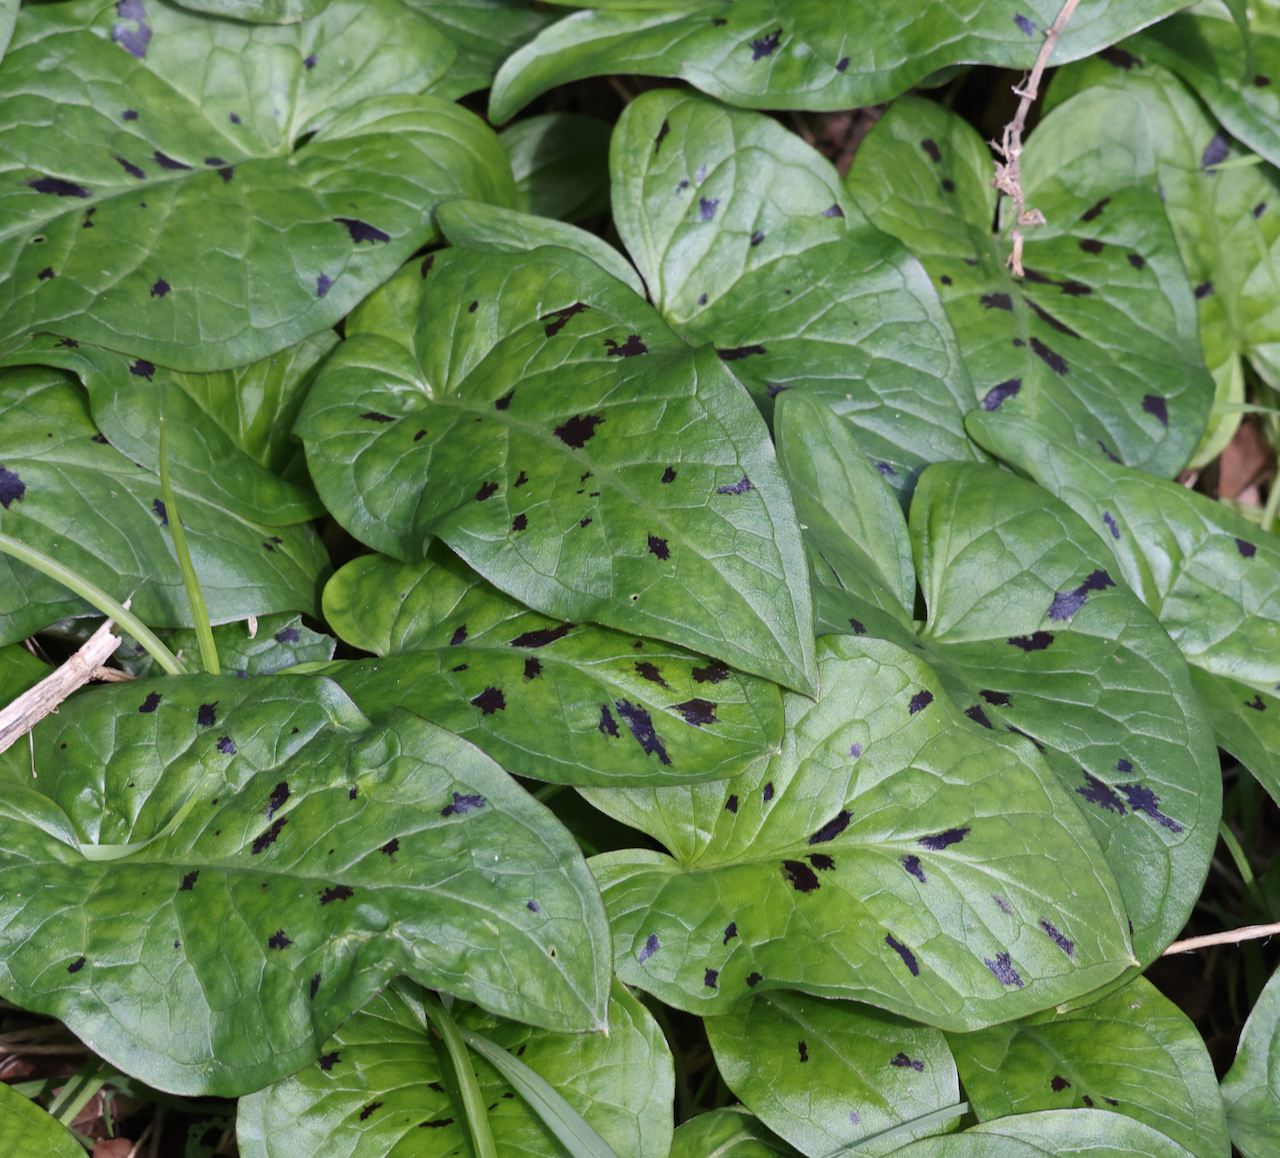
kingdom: Plantae
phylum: Tracheophyta
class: Liliopsida
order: Alismatales
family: Araceae
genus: Arum
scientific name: Arum maculatum
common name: Lords-and-ladies
